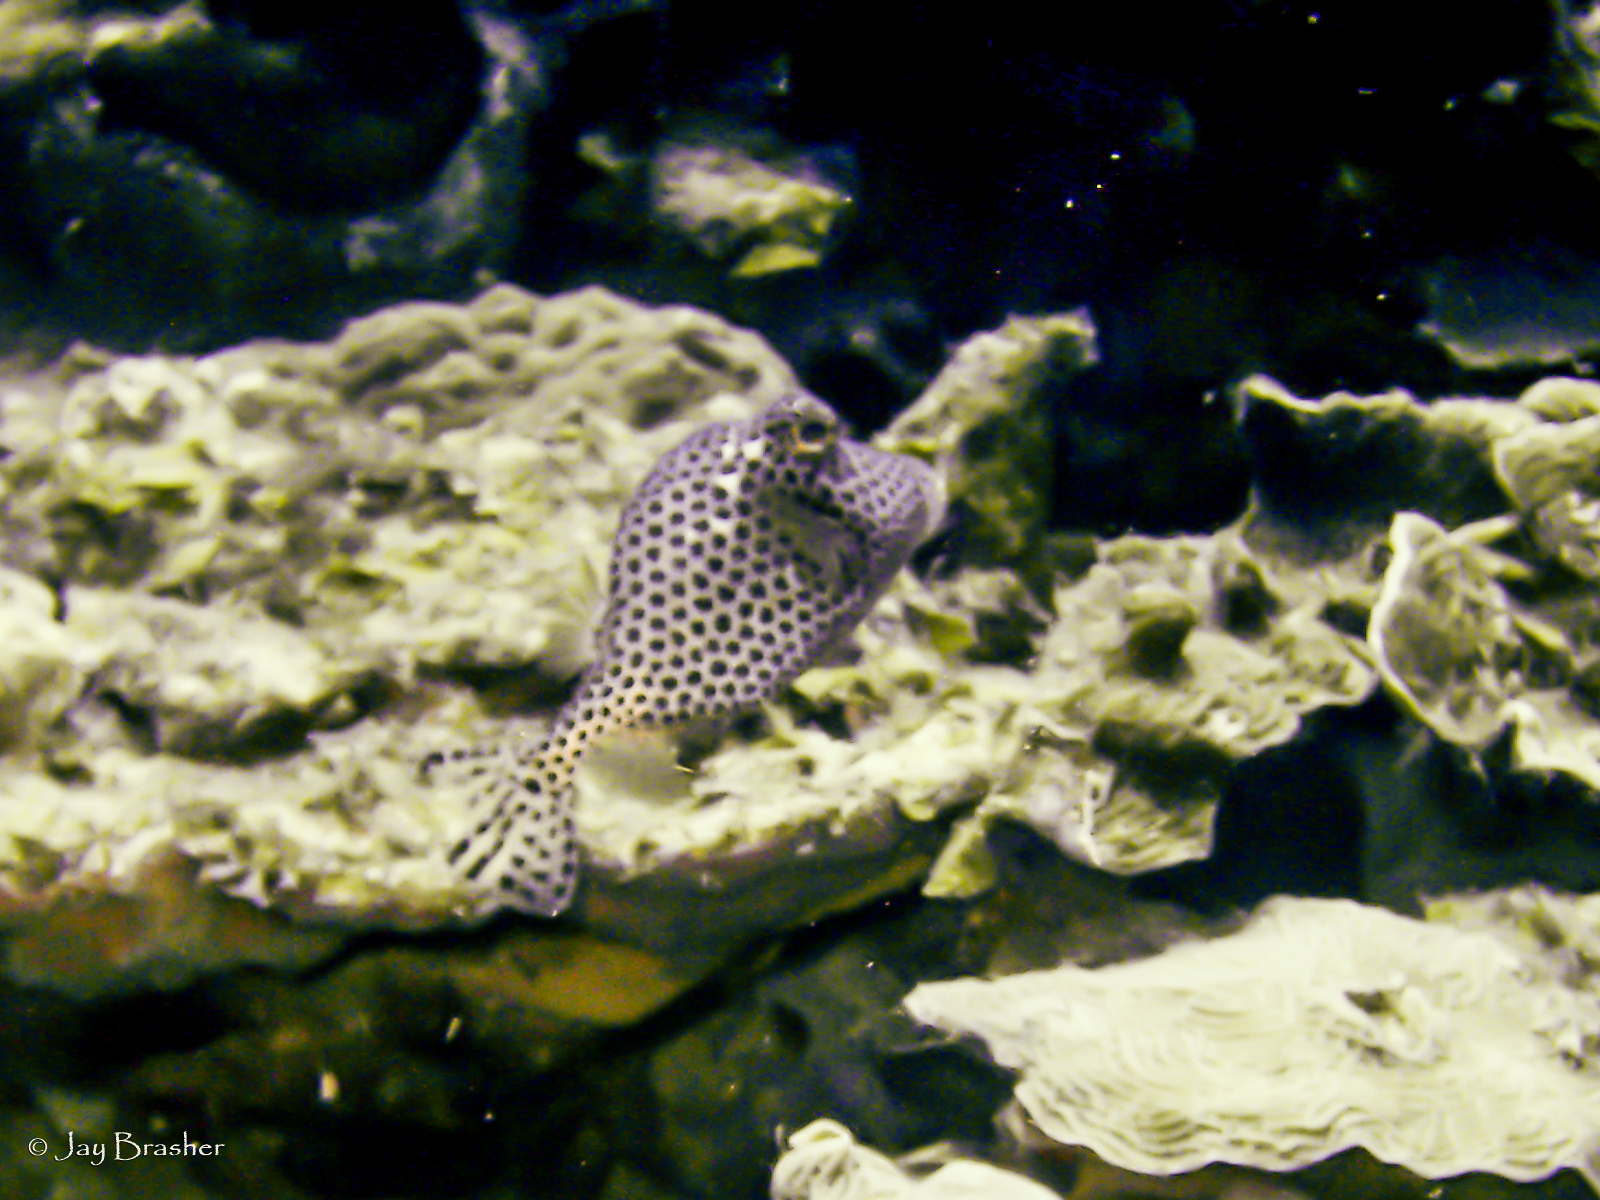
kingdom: Animalia
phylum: Chordata
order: Tetraodontiformes
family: Ostraciidae
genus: Lactophrys
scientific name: Lactophrys bicaudalis
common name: Spotted trunkfish
